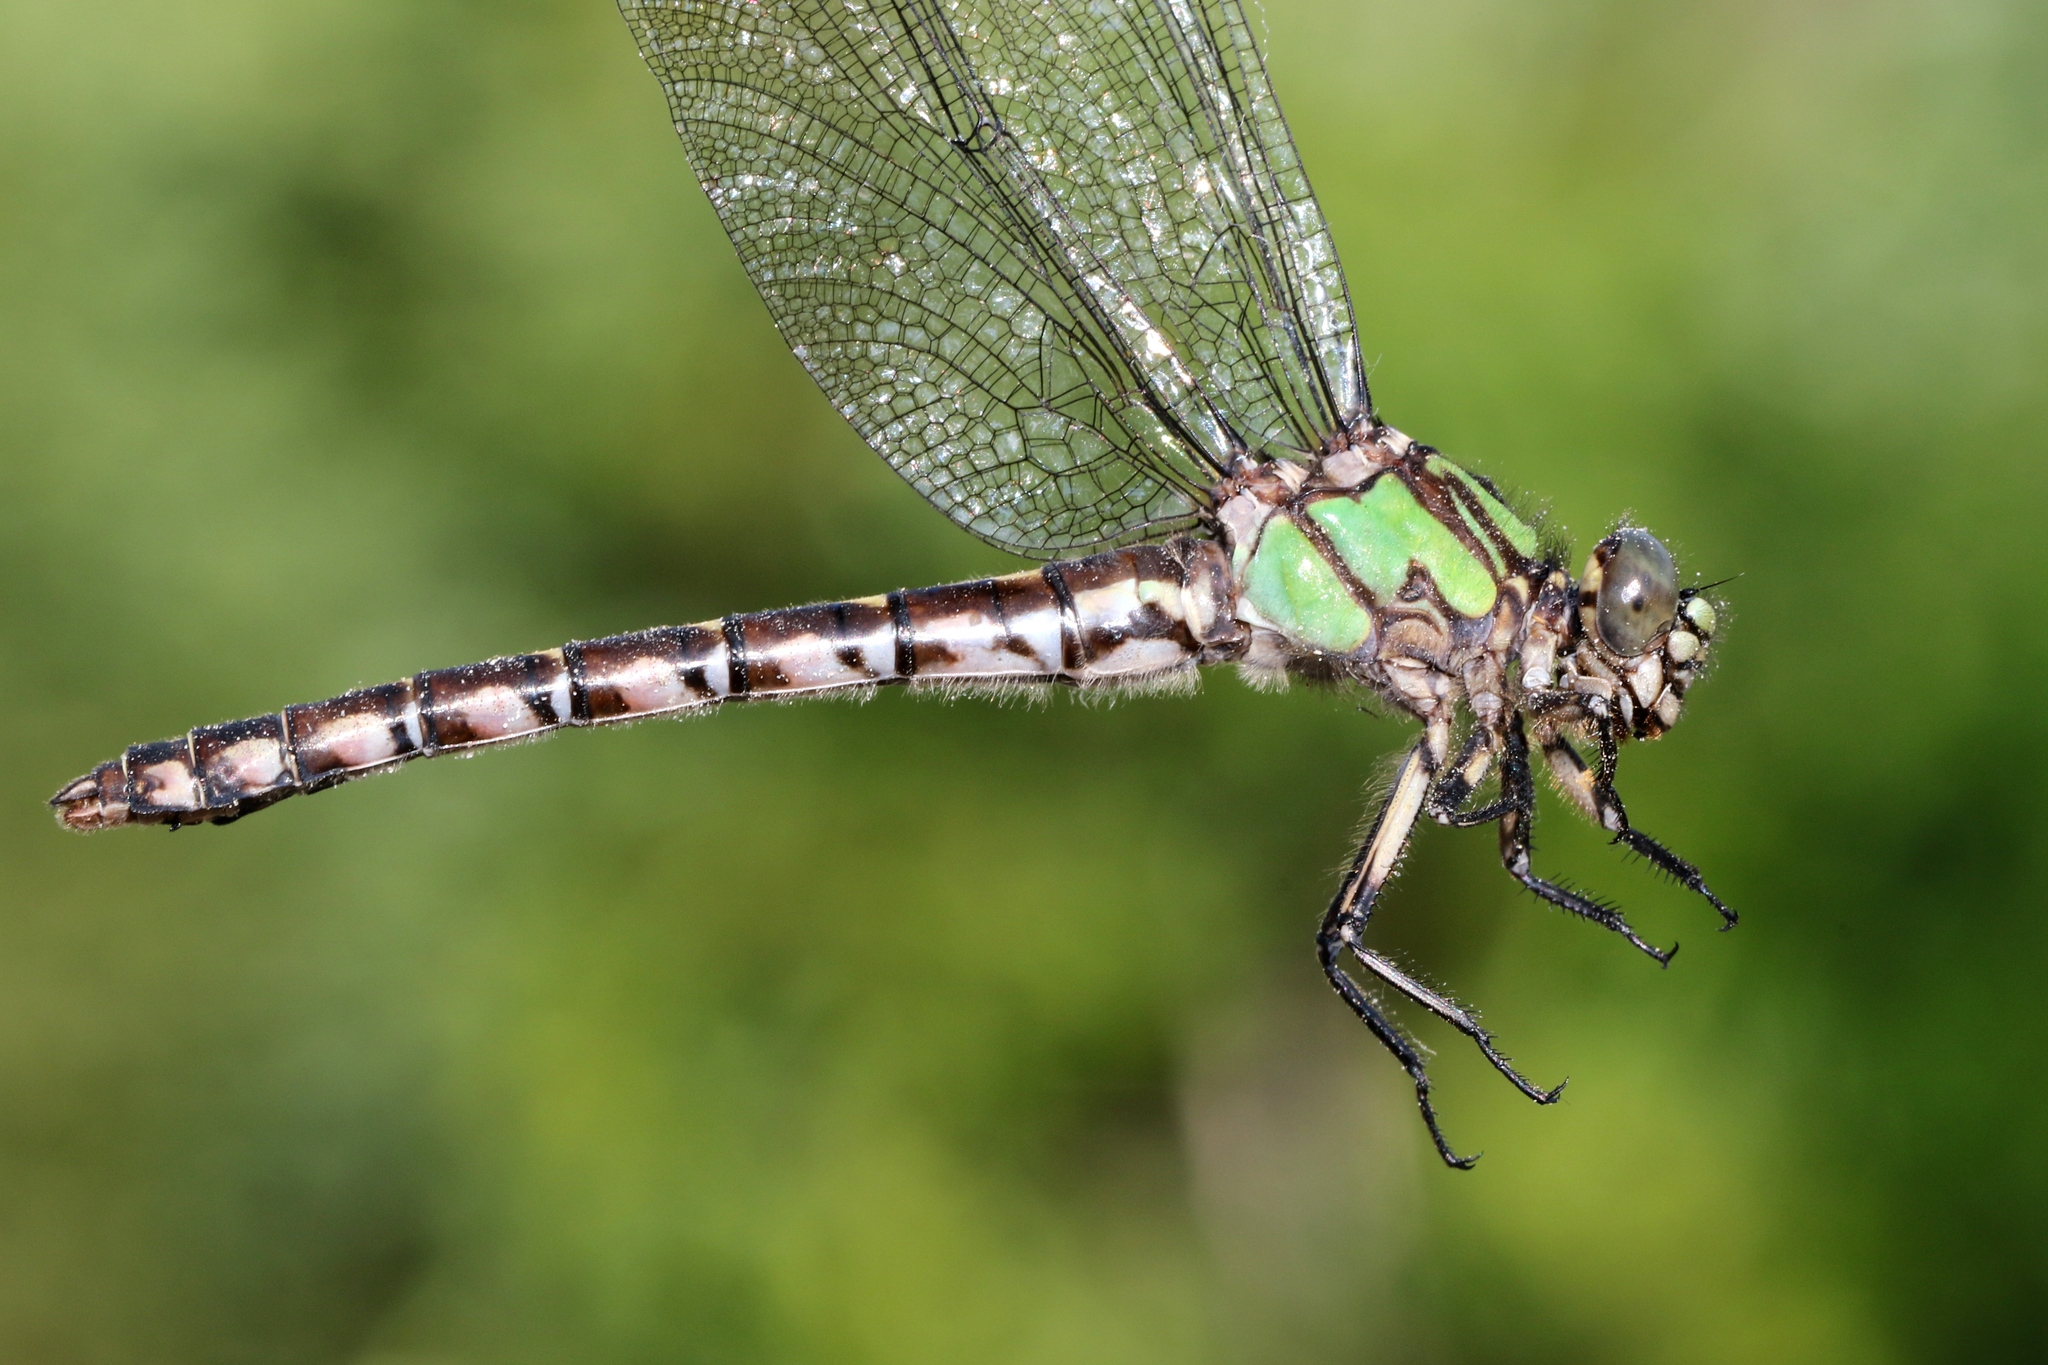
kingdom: Animalia
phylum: Arthropoda
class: Insecta
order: Odonata
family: Gomphidae
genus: Ophiogomphus
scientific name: Ophiogomphus colubrinus
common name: Boreal snaketail
